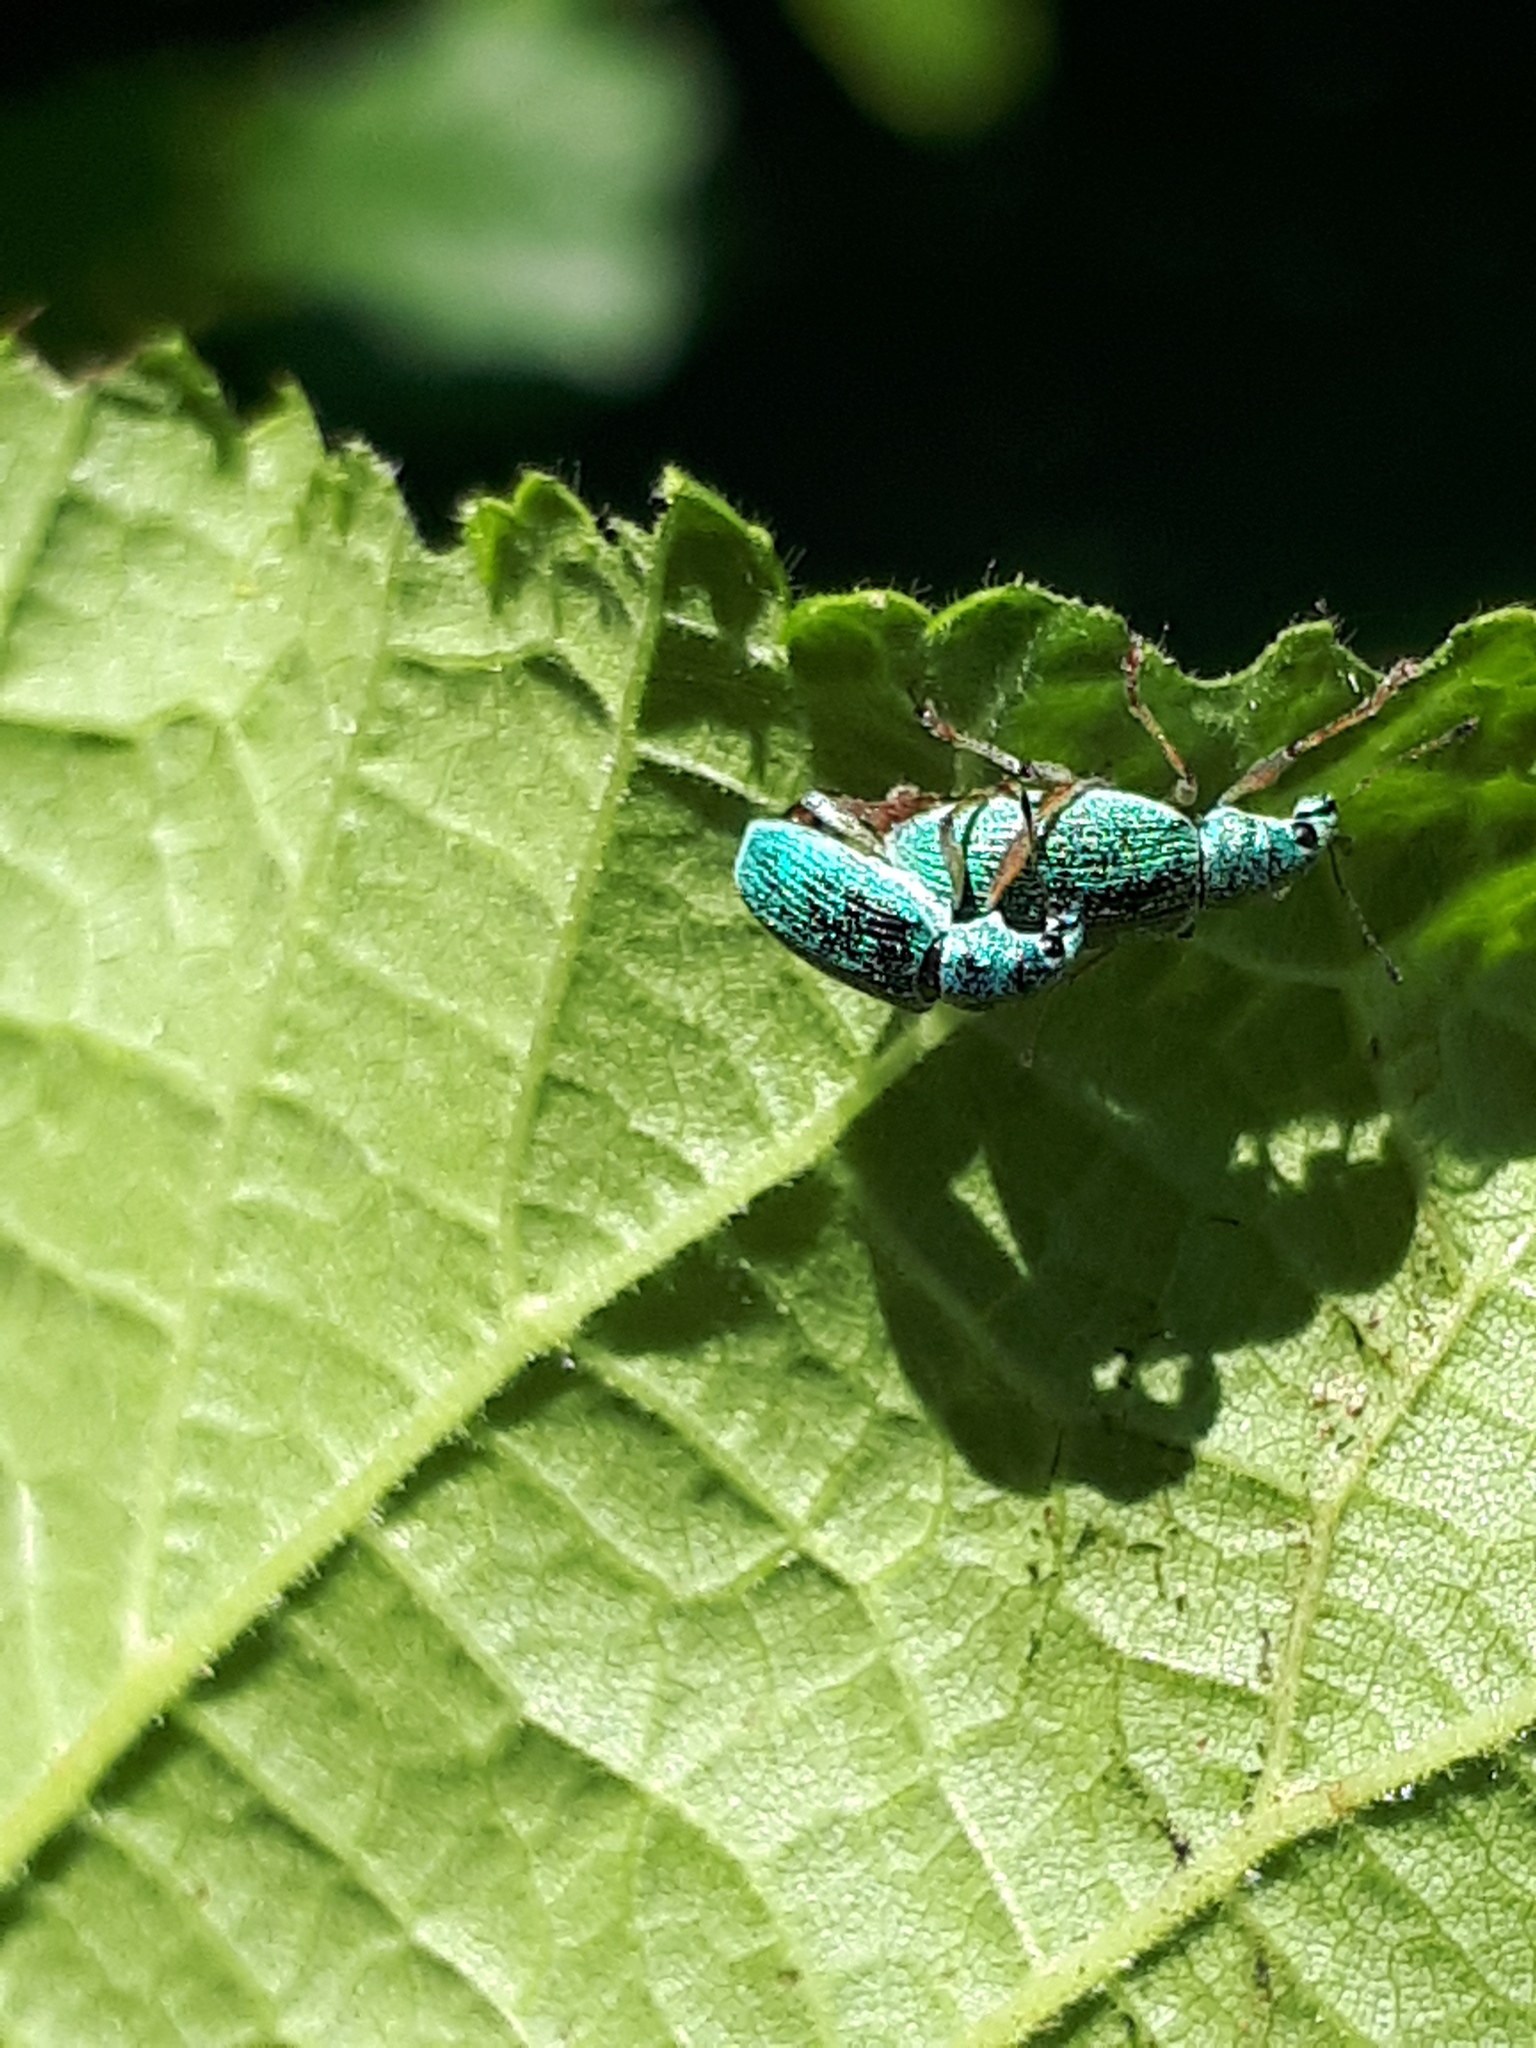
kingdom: Animalia
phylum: Arthropoda
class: Insecta
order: Coleoptera
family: Curculionidae
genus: Polydrusus
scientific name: Polydrusus formosus
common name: Weevil
